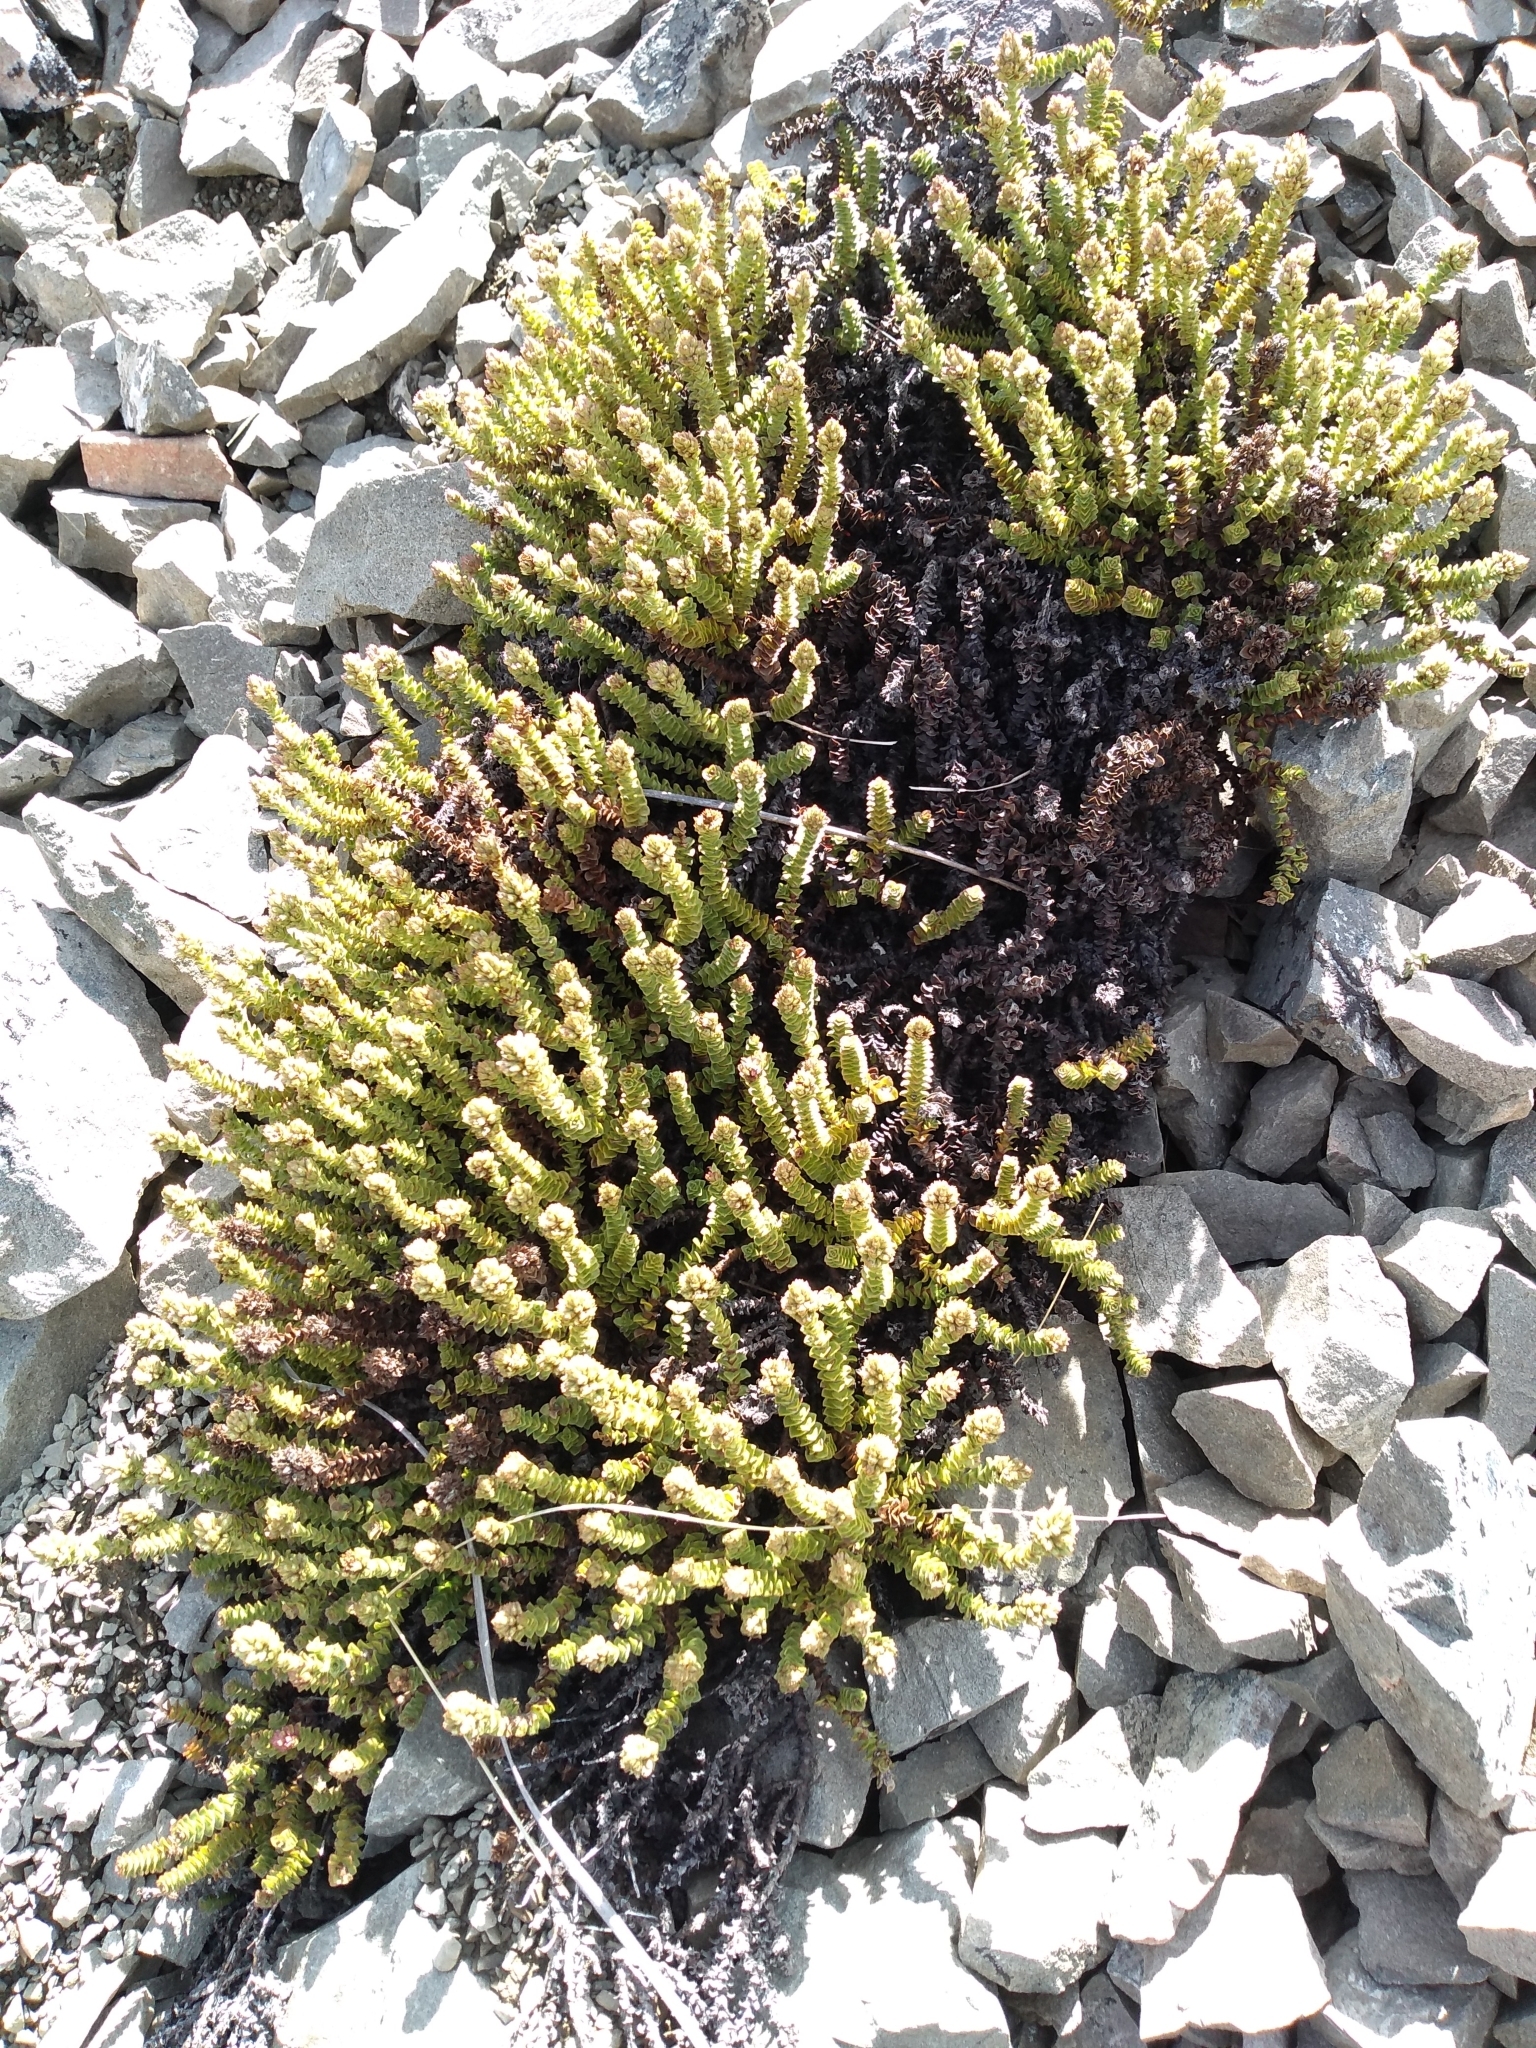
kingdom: Plantae
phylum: Tracheophyta
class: Magnoliopsida
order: Lamiales
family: Plantaginaceae
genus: Veronica
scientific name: Veronica epacridea
